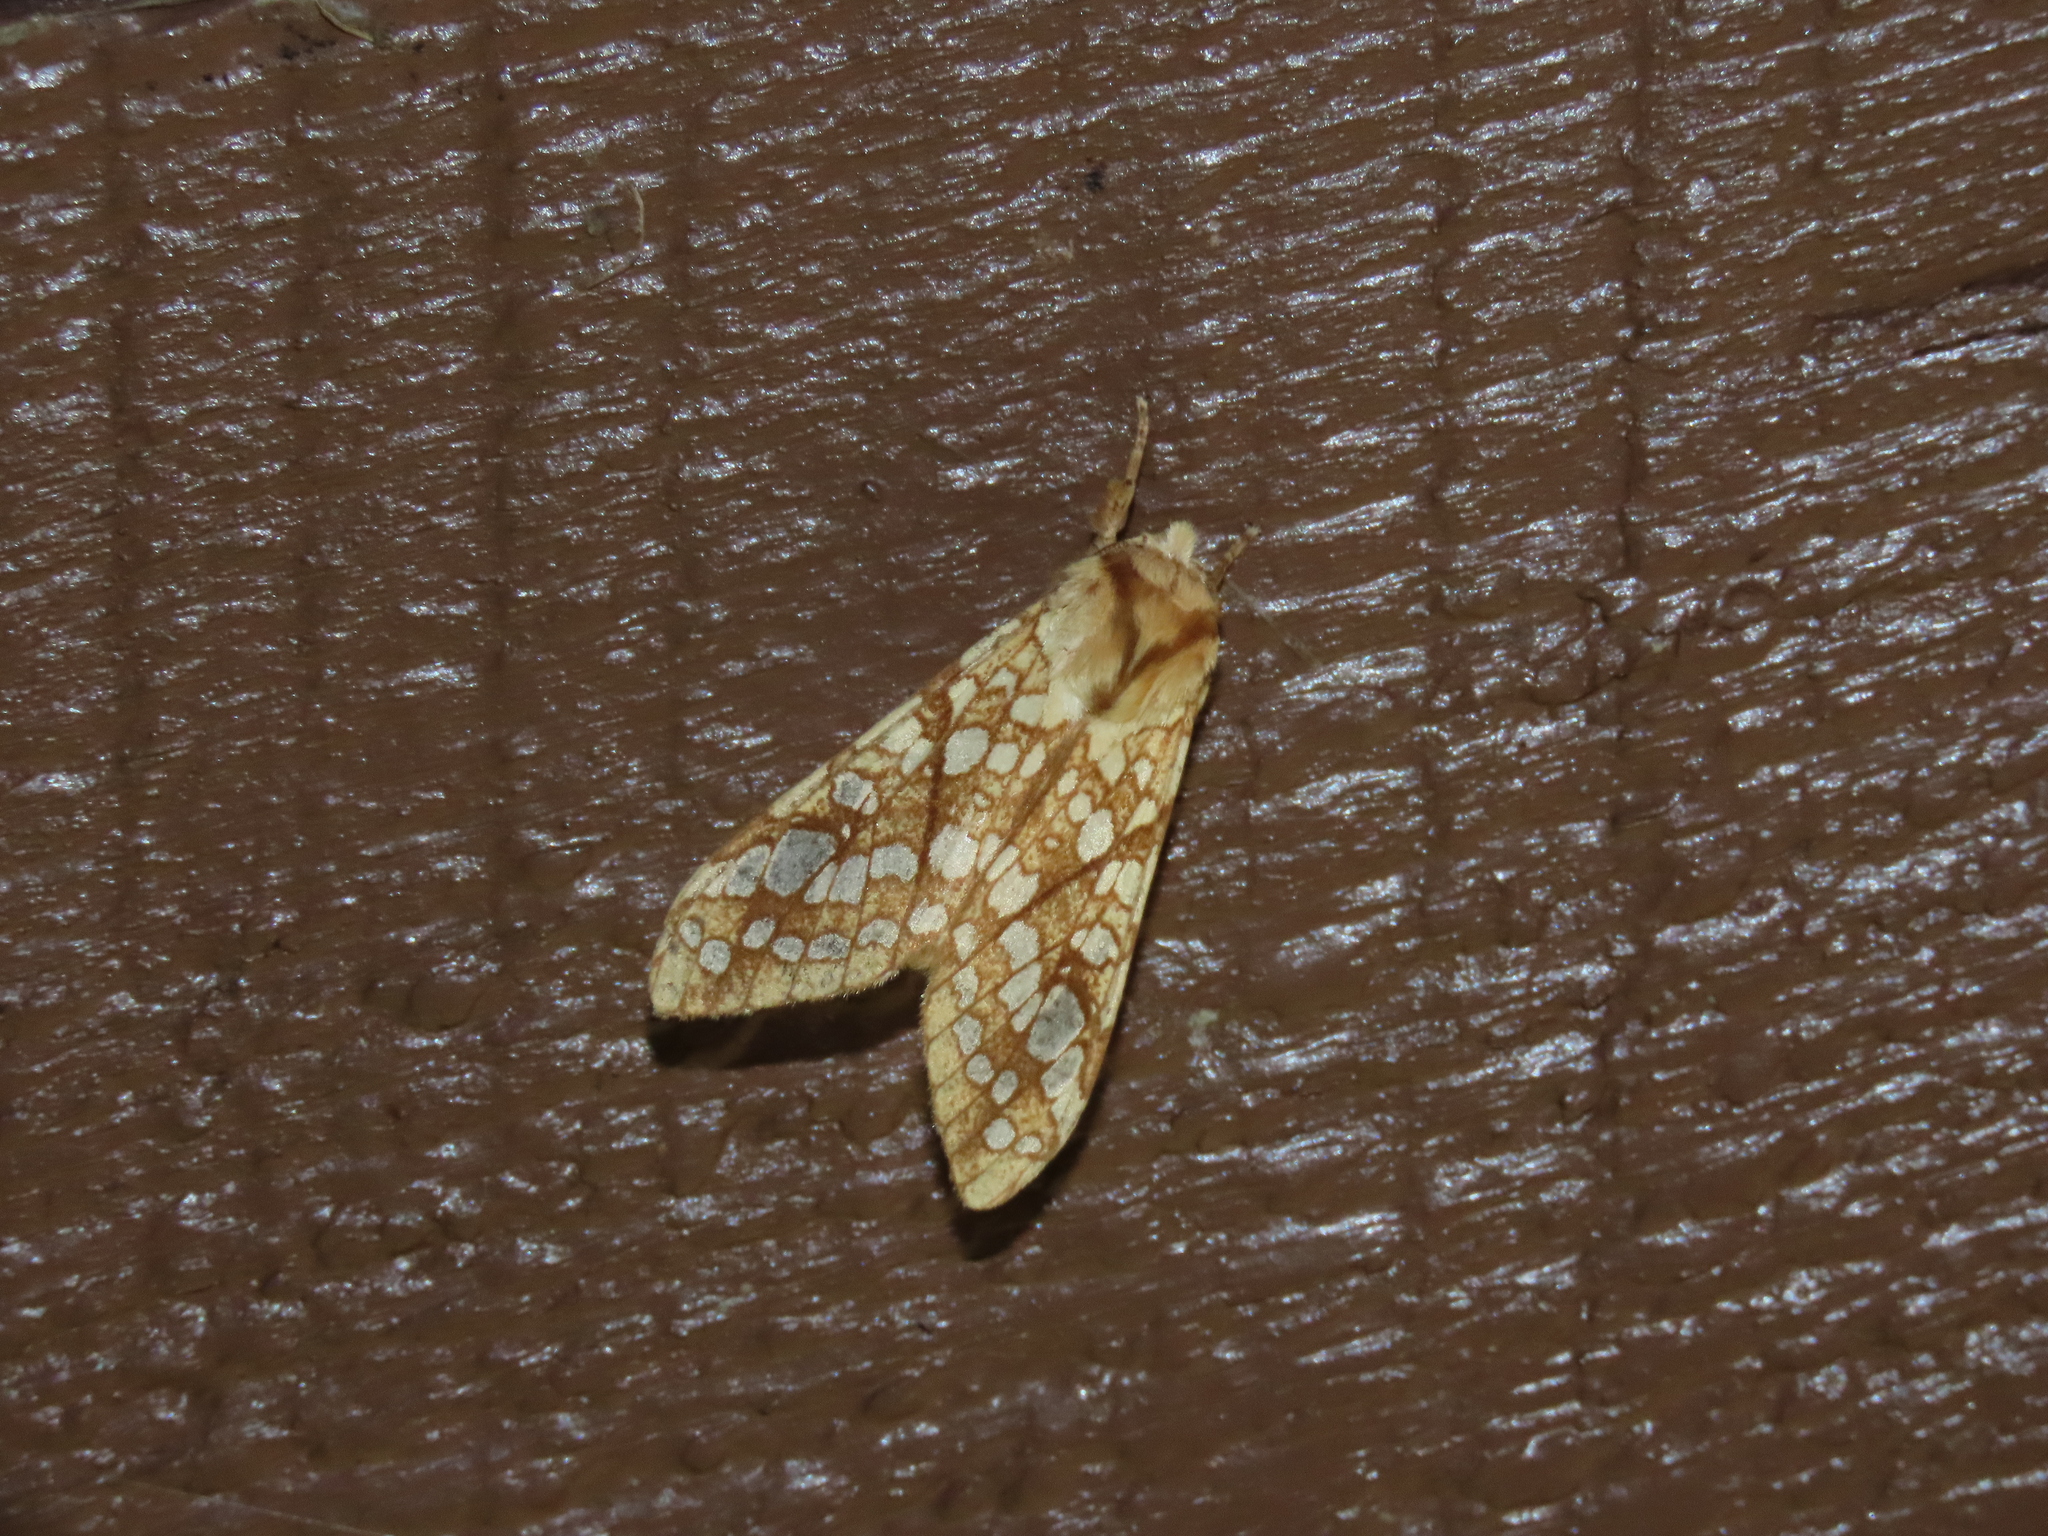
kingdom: Animalia
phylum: Arthropoda
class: Insecta
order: Lepidoptera
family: Erebidae
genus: Lophocampa
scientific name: Lophocampa caryae
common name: Hickory tussock moth
